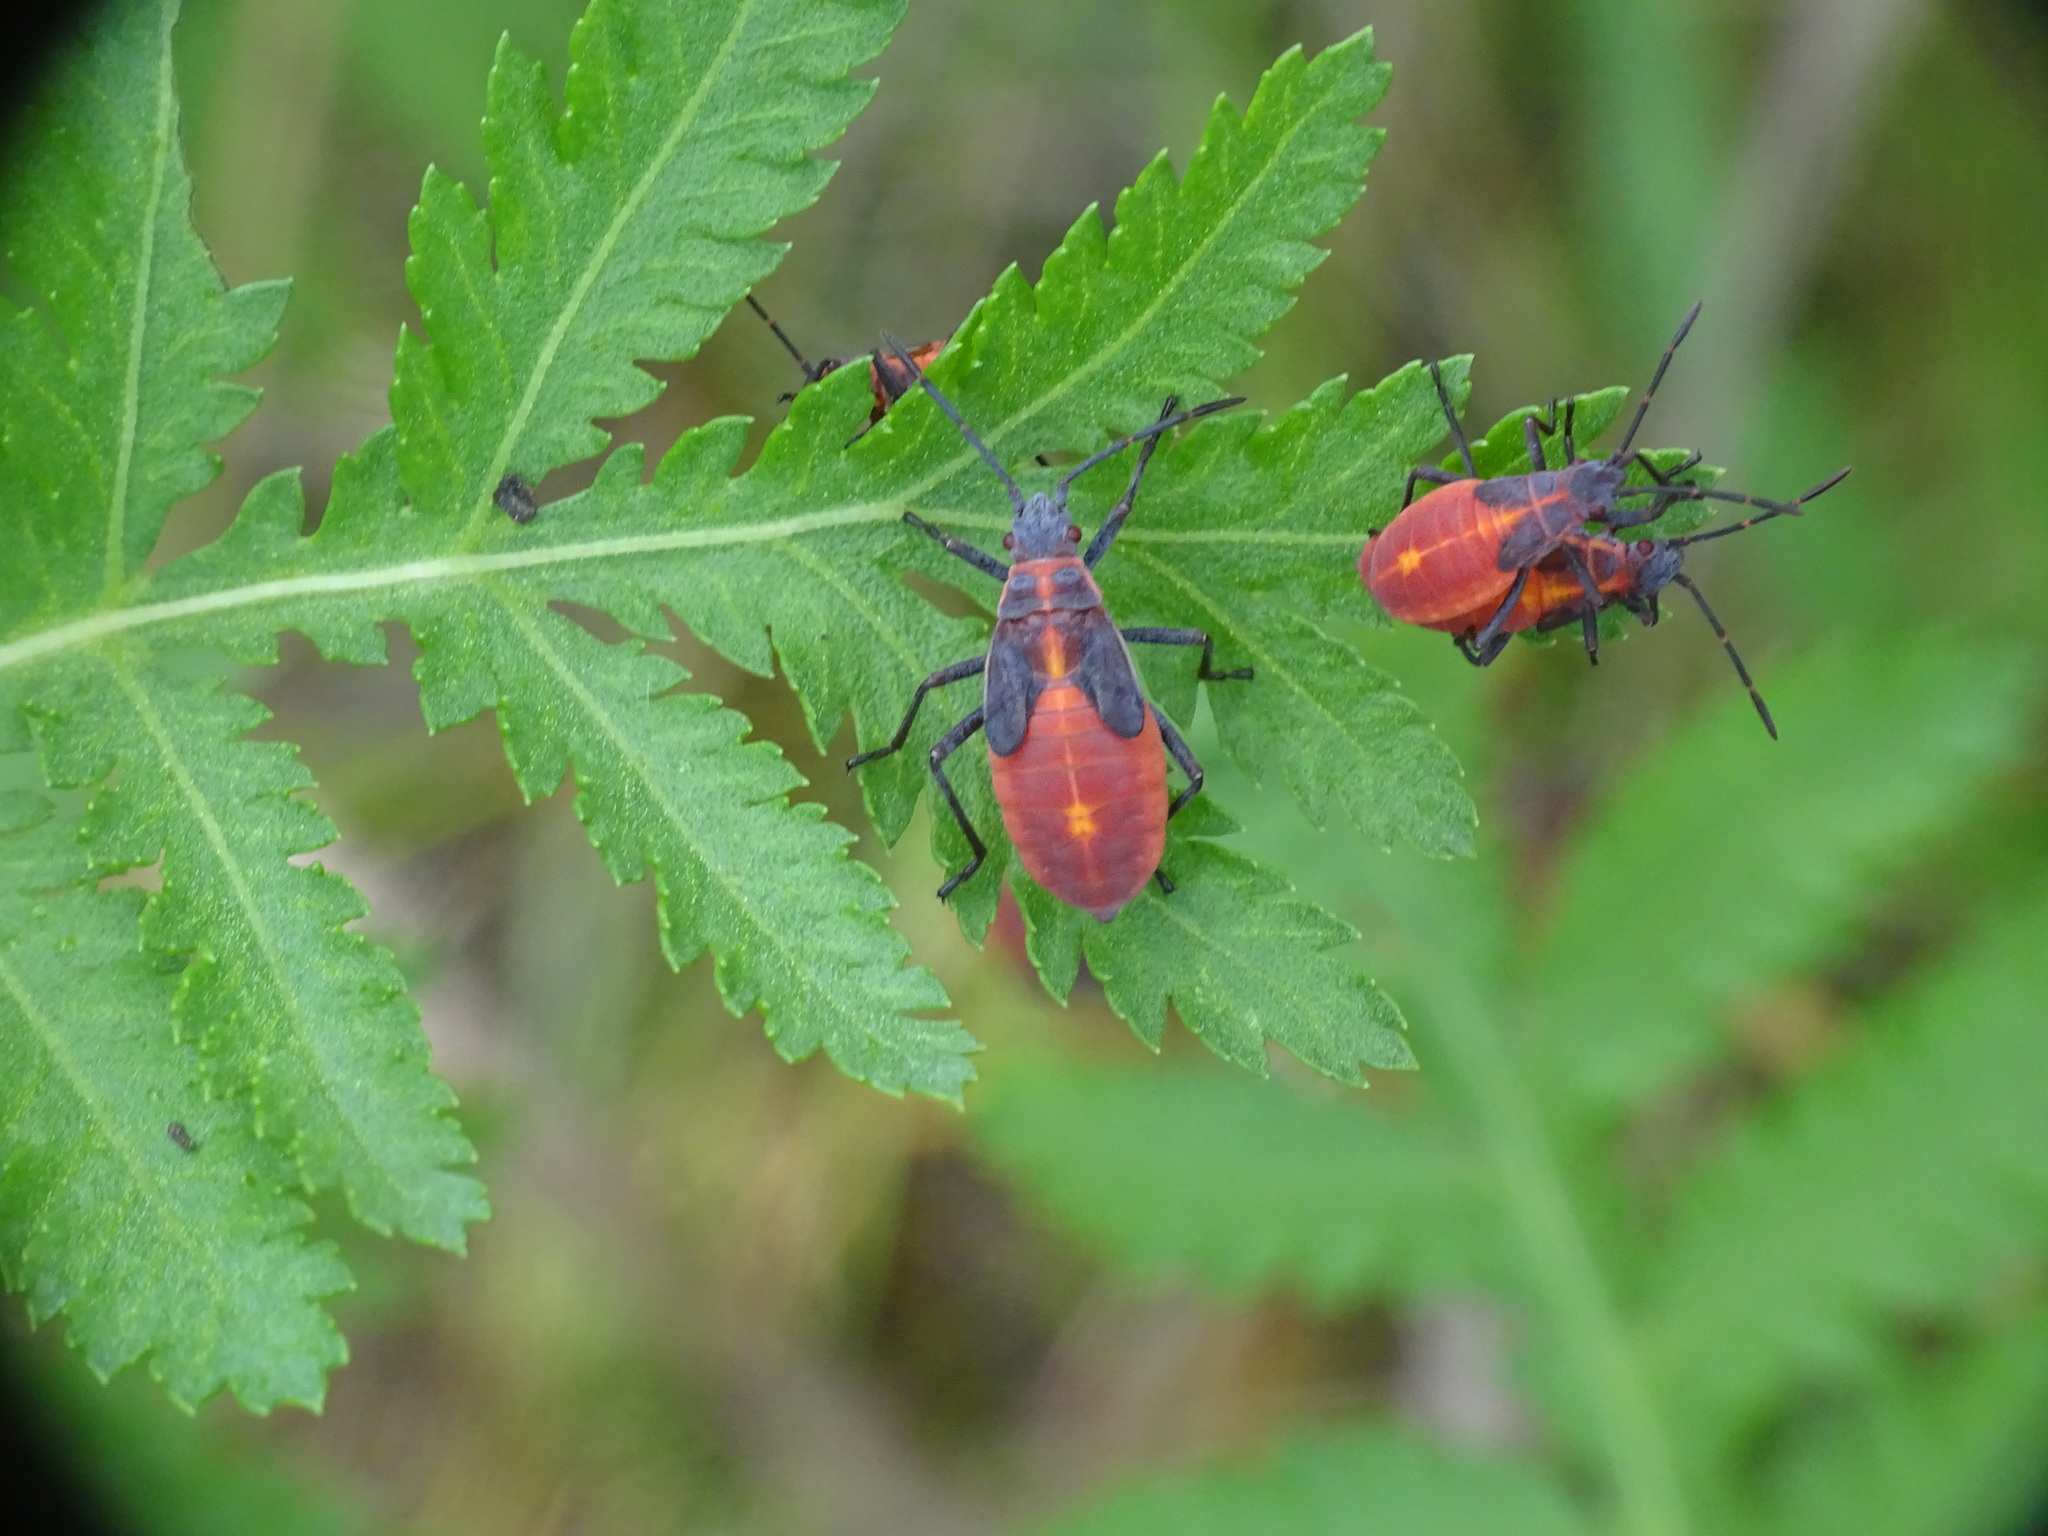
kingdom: Animalia
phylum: Arthropoda
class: Insecta
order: Hemiptera
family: Rhopalidae
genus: Boisea
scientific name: Boisea trivittata
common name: Boxelder bug
